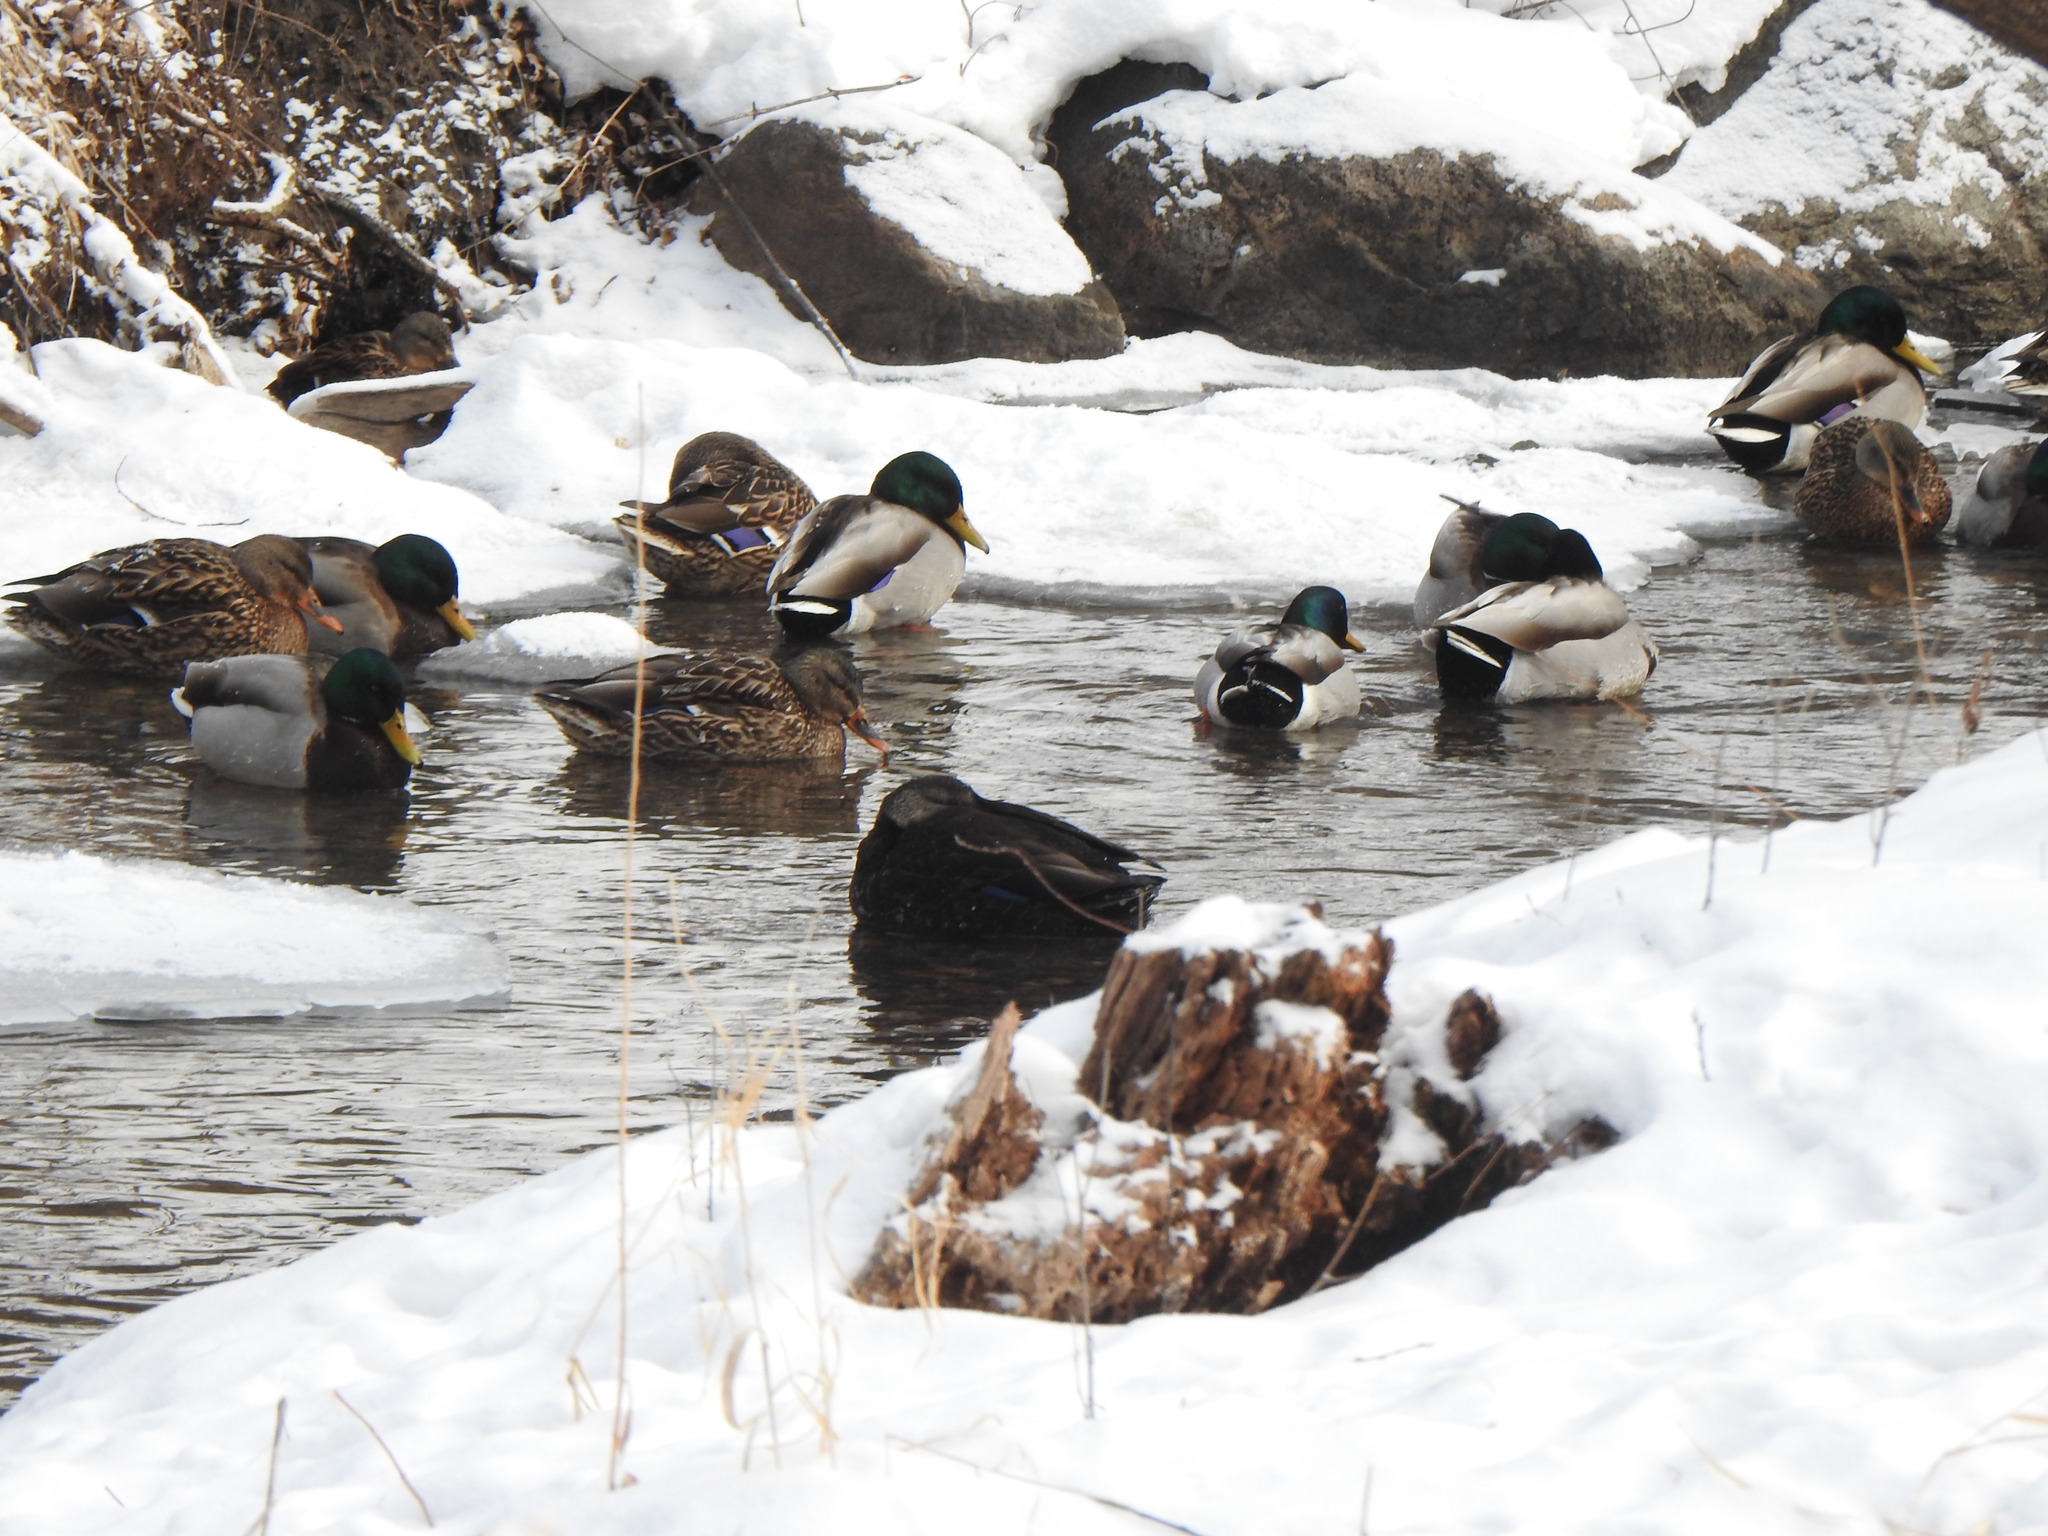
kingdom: Animalia
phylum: Chordata
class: Aves
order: Anseriformes
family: Anatidae
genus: Anas
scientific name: Anas rubripes
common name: American black duck
